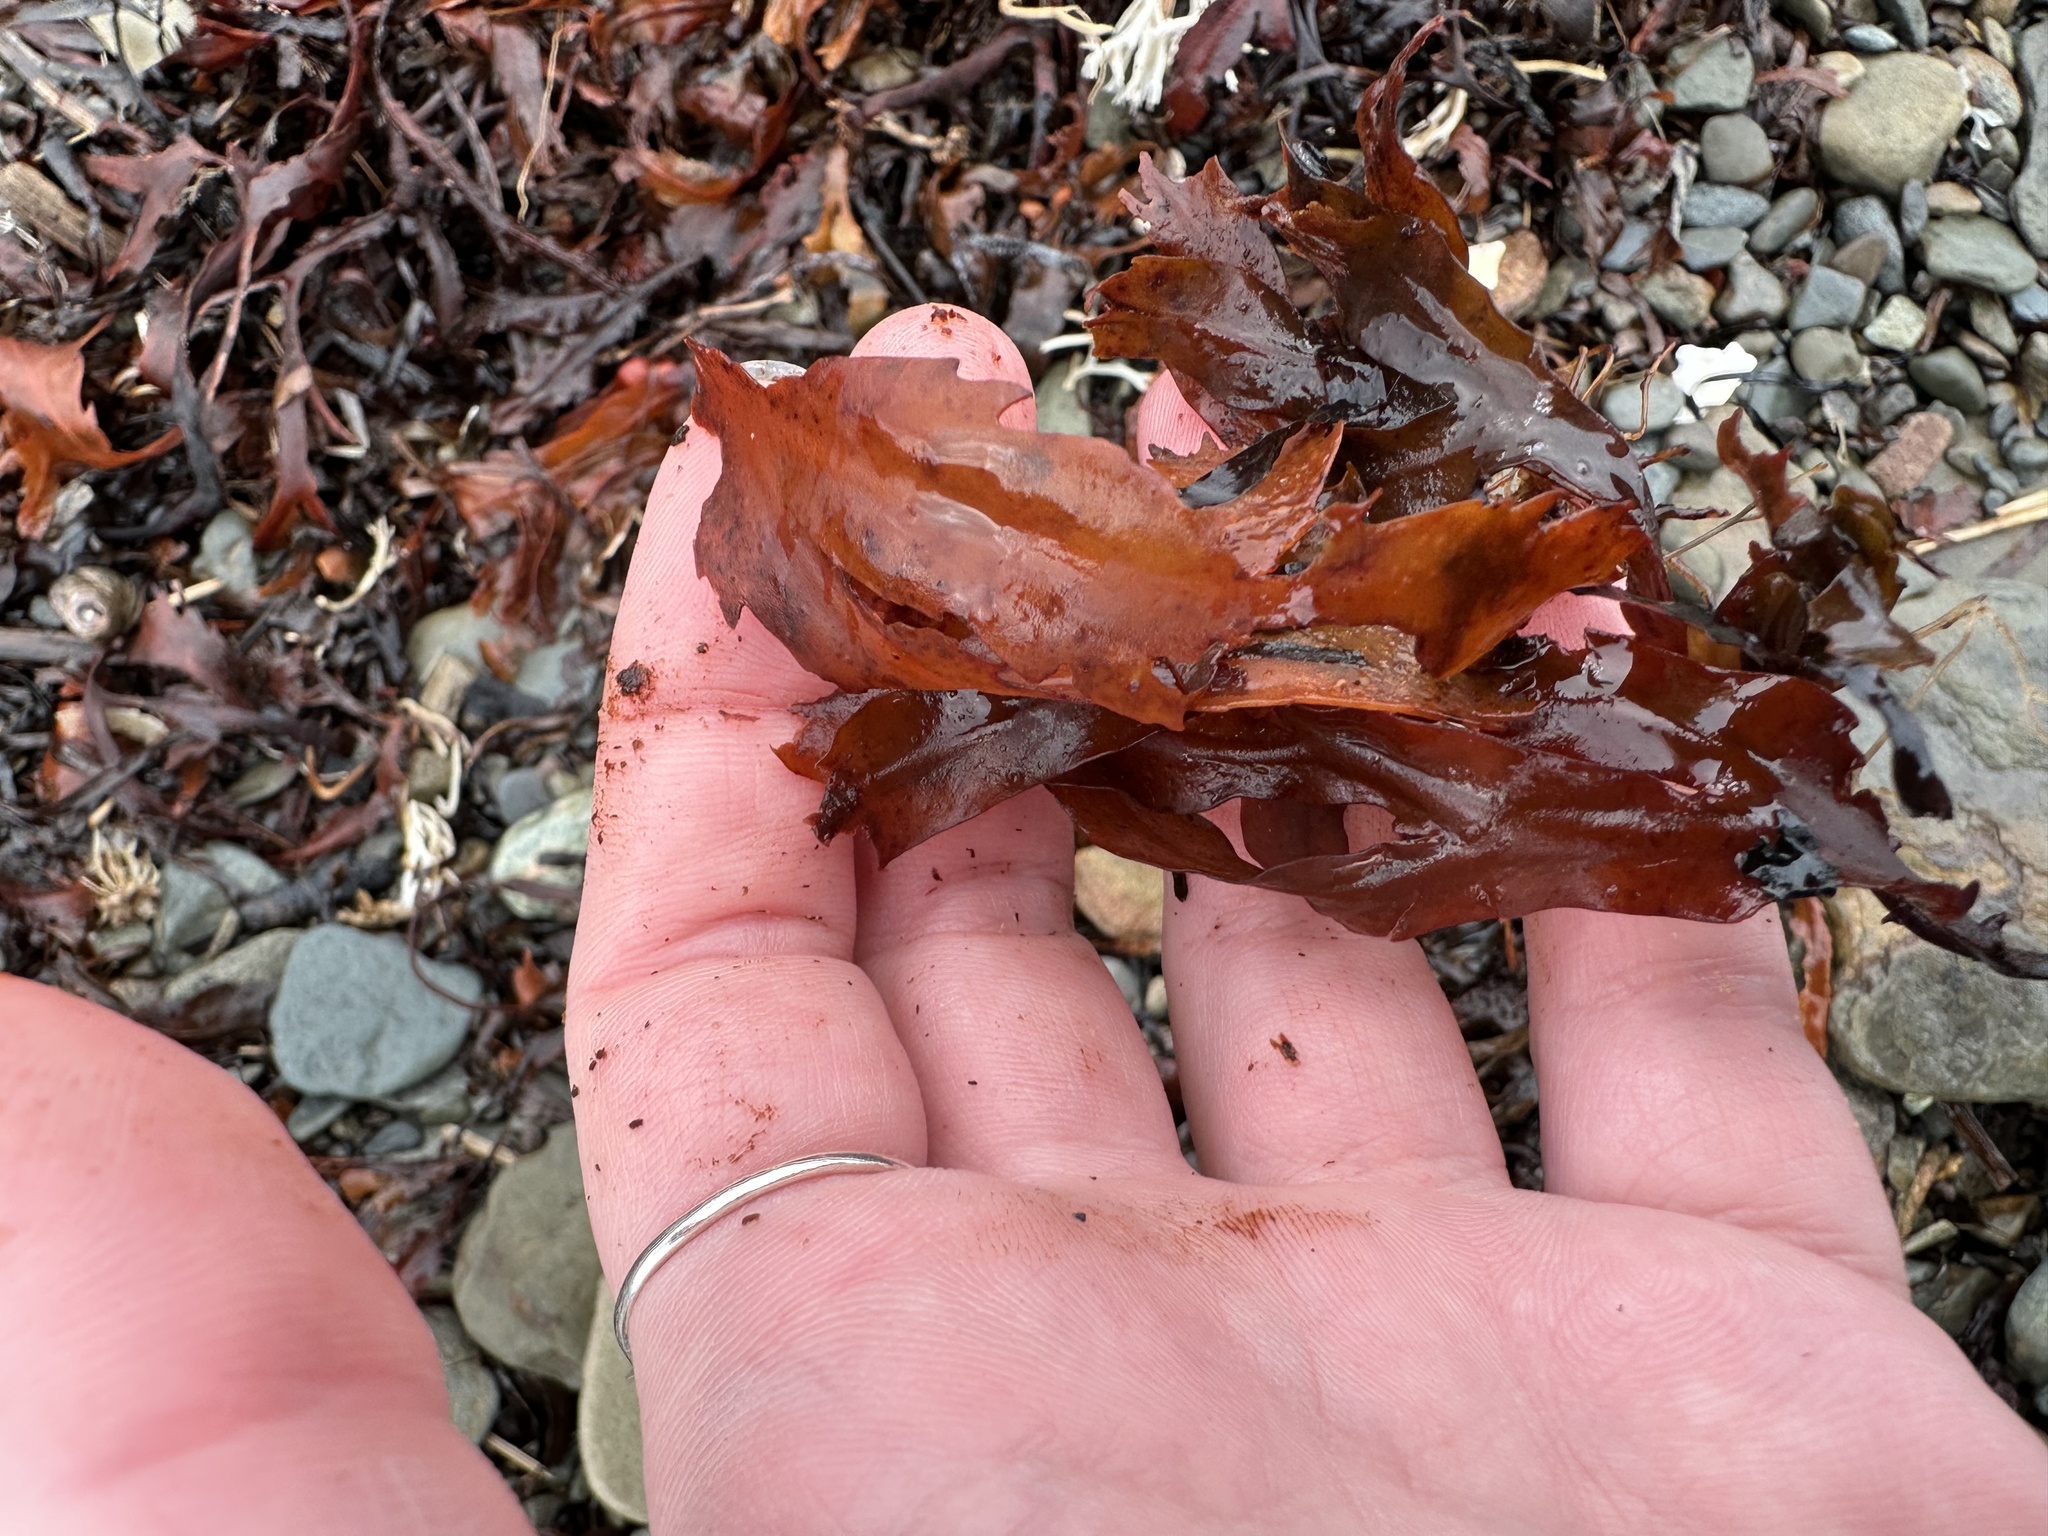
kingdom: Chromista
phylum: Ochrophyta
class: Phaeophyceae
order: Fucales
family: Fucaceae
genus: Fucus
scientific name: Fucus serratus
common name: Toothed wrack
